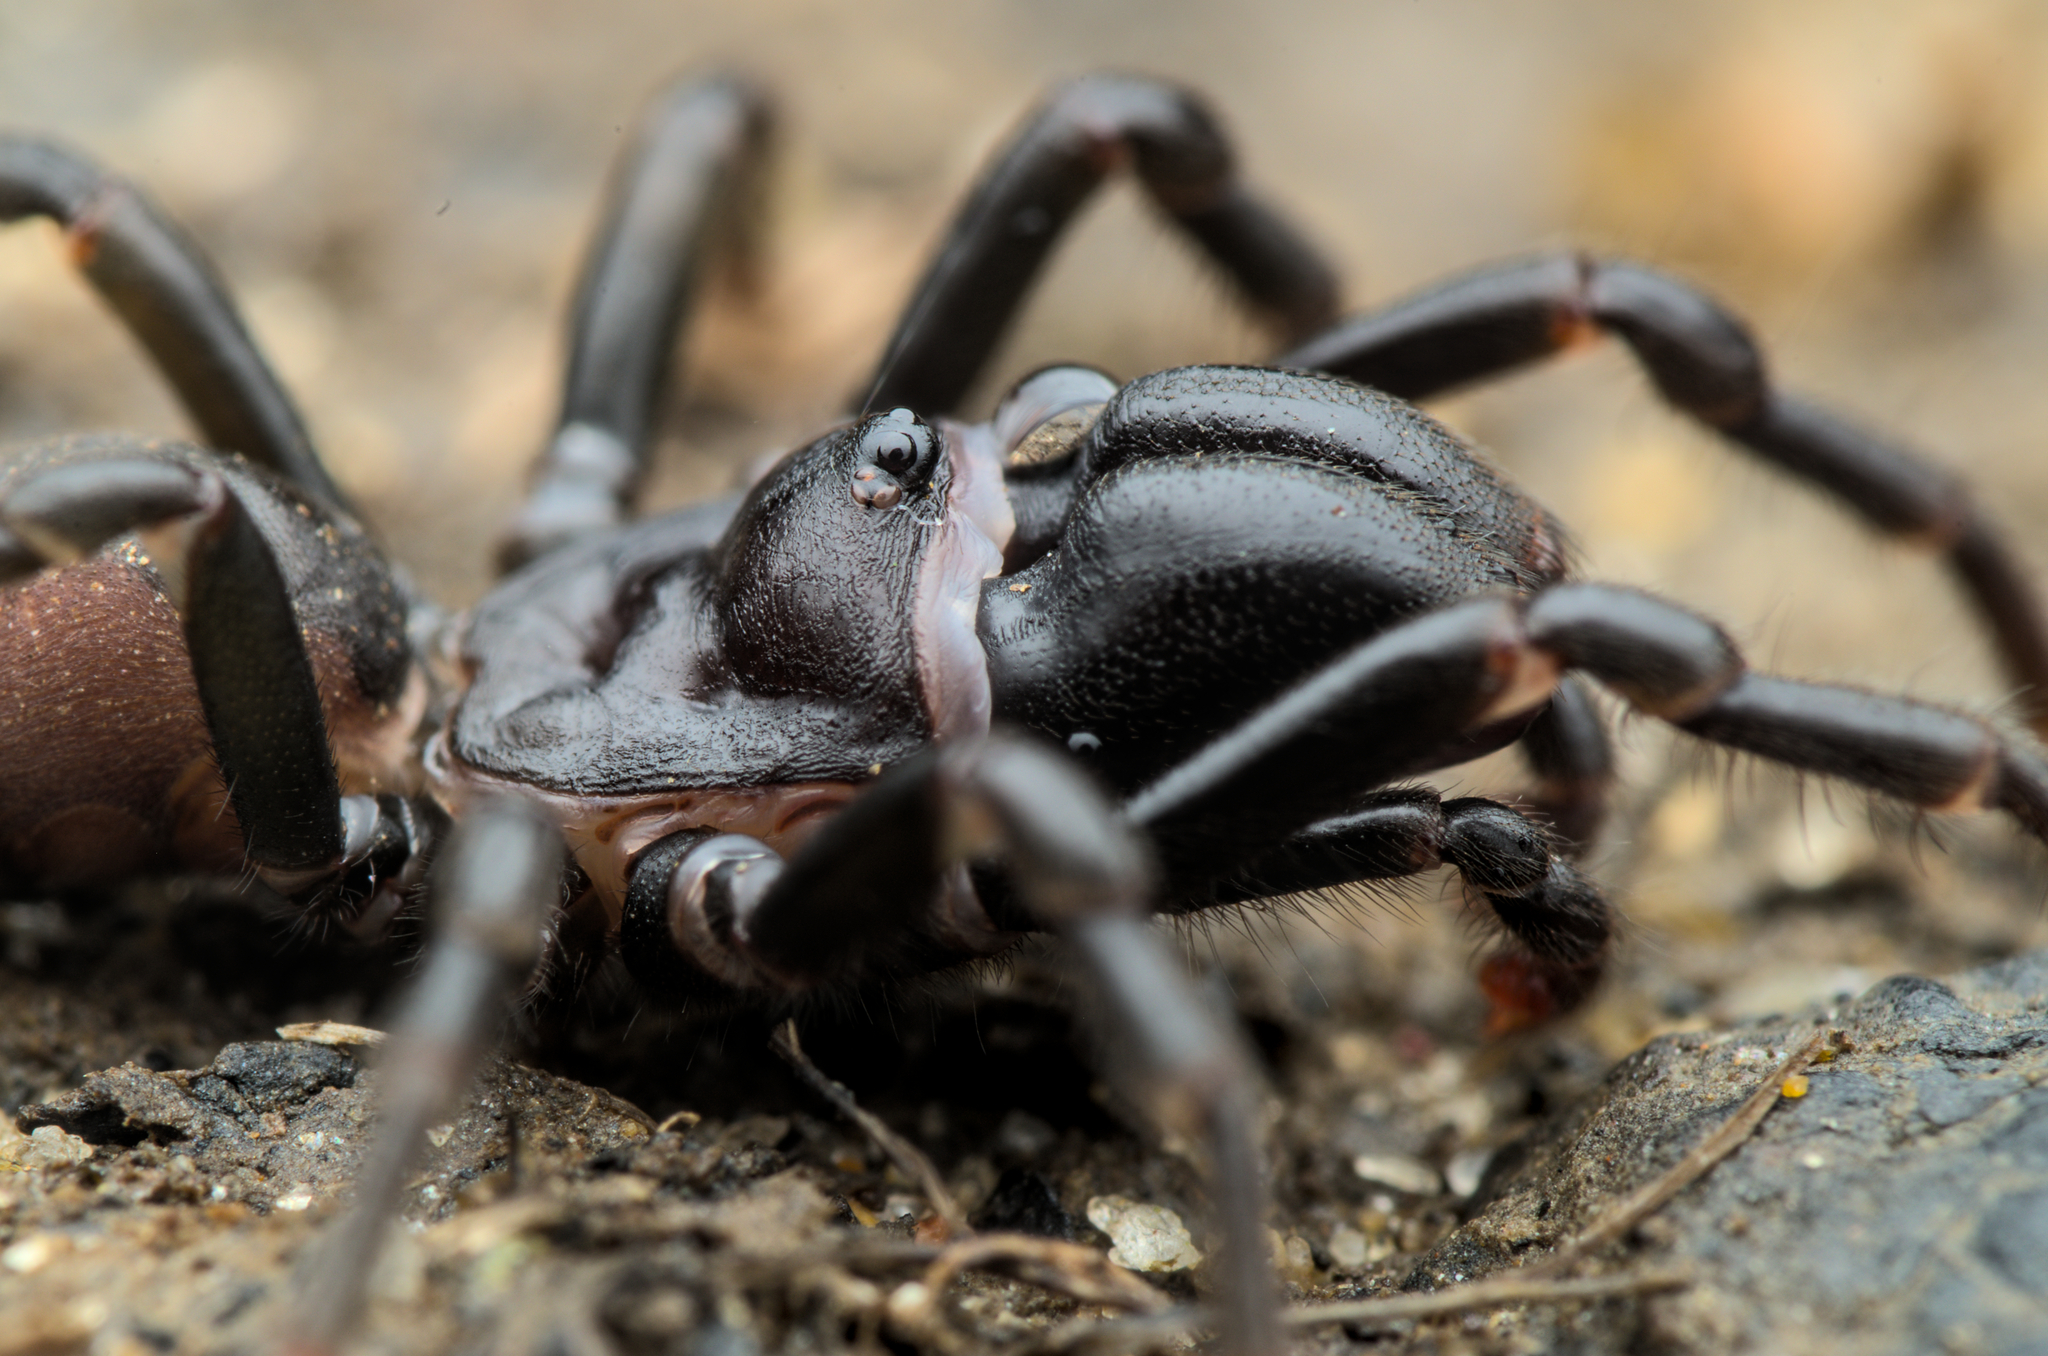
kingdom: Animalia
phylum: Arthropoda
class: Arachnida
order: Araneae
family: Atypidae
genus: Atypus
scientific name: Atypus
